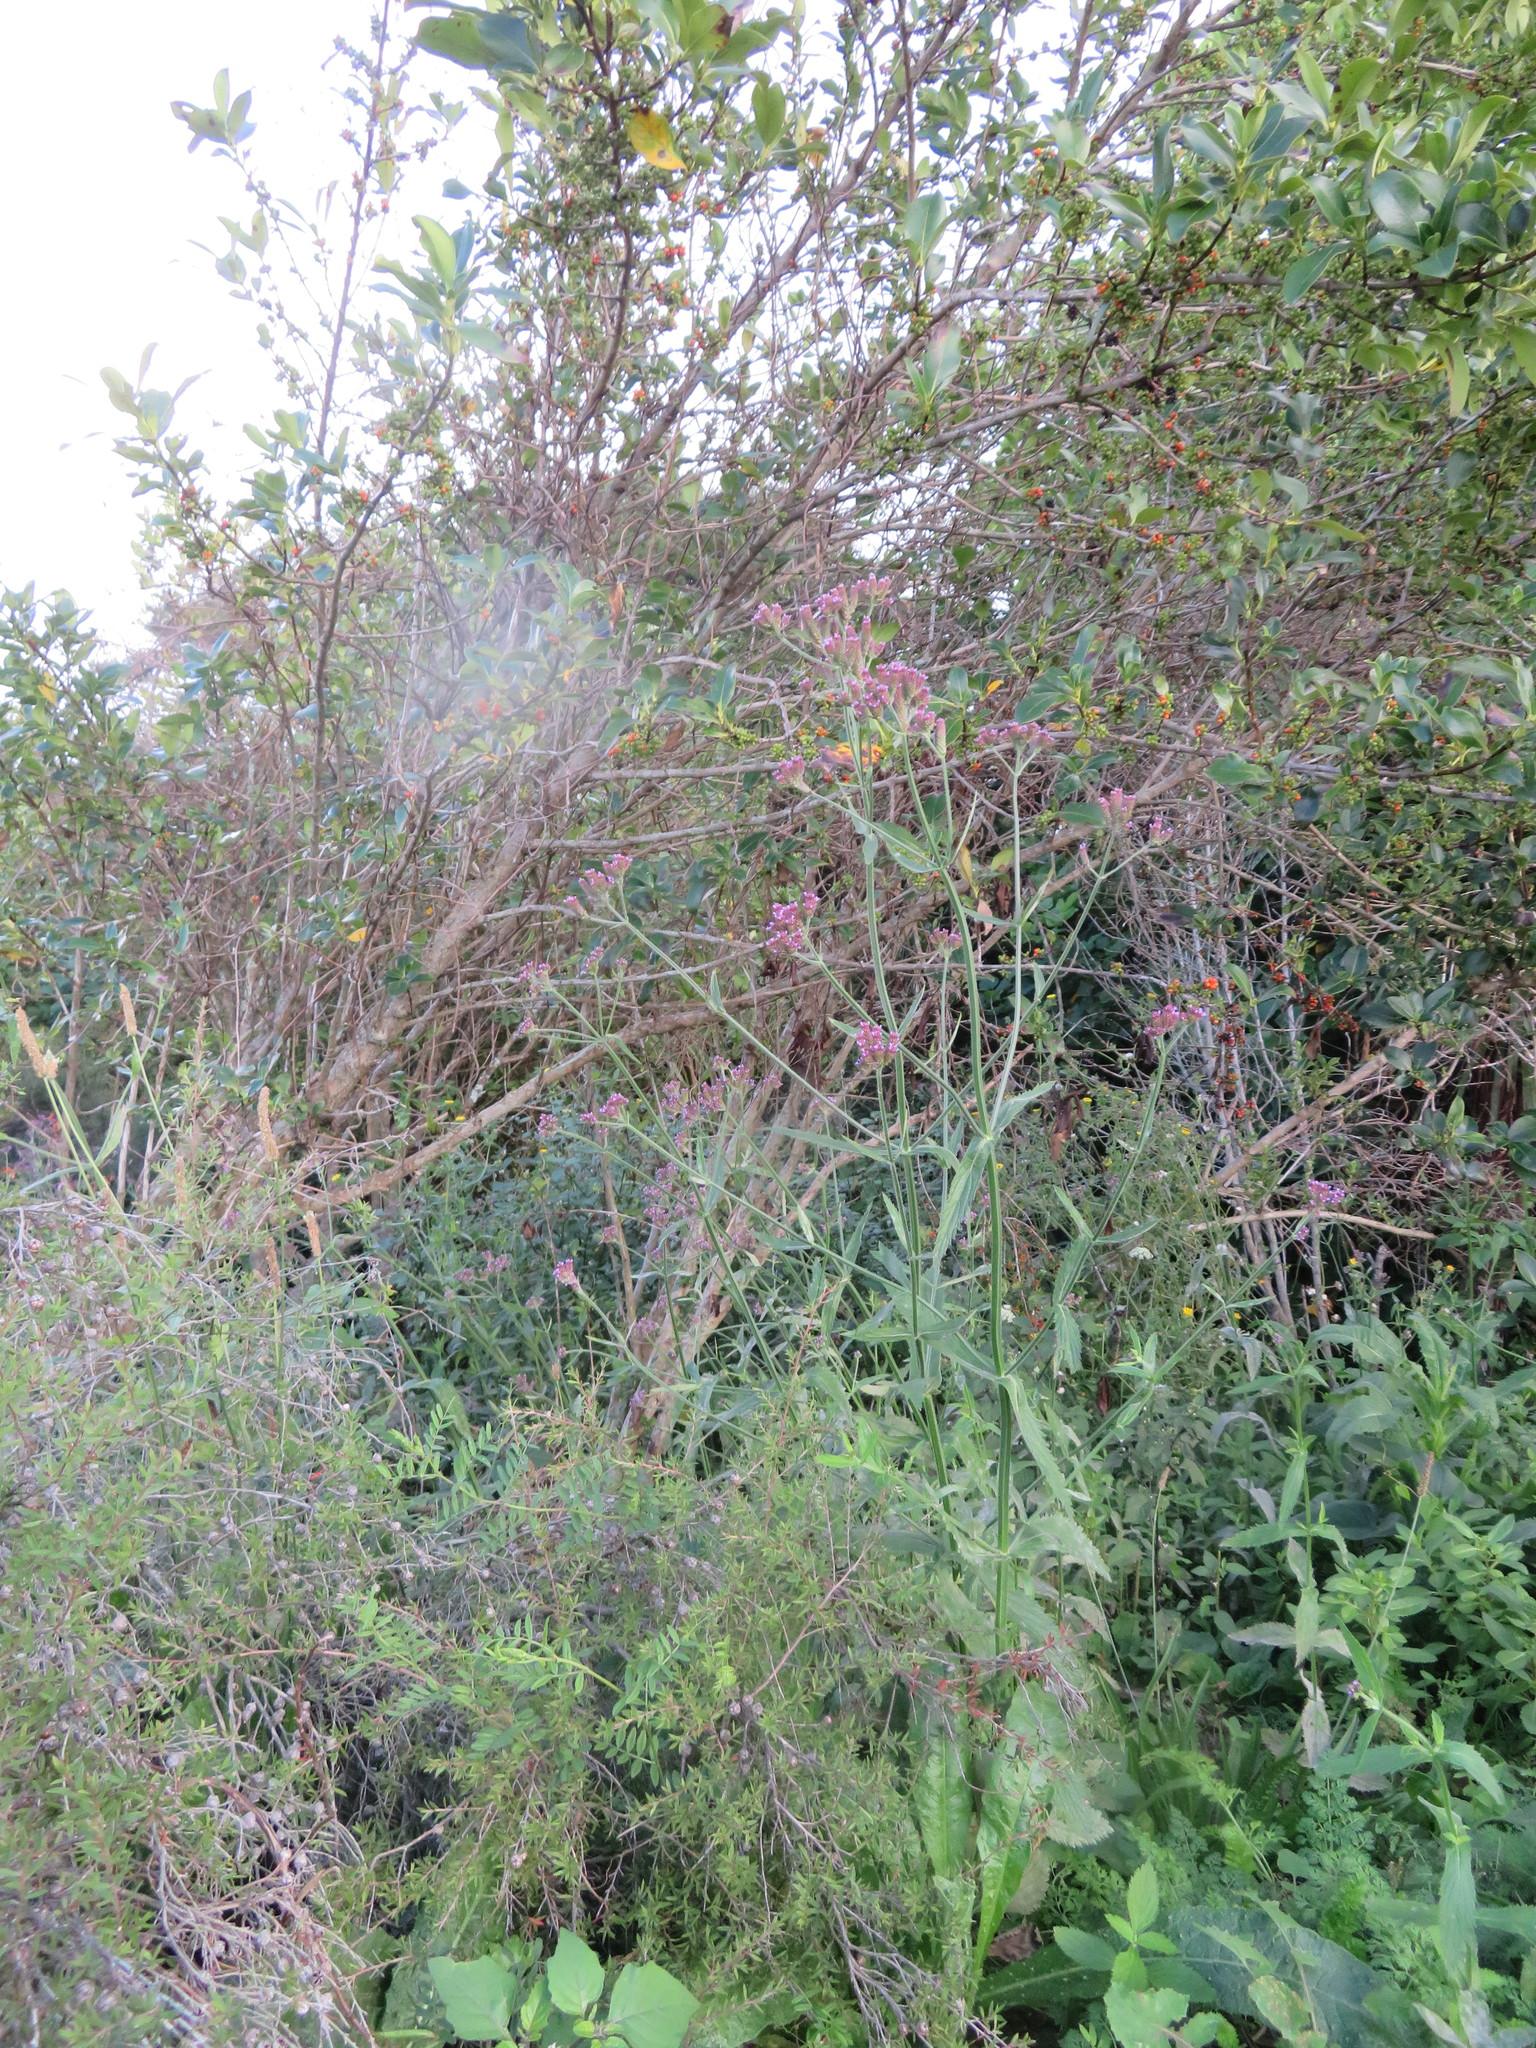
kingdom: Plantae
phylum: Tracheophyta
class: Magnoliopsida
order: Gentianales
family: Rubiaceae
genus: Coprosma
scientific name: Coprosma robusta
